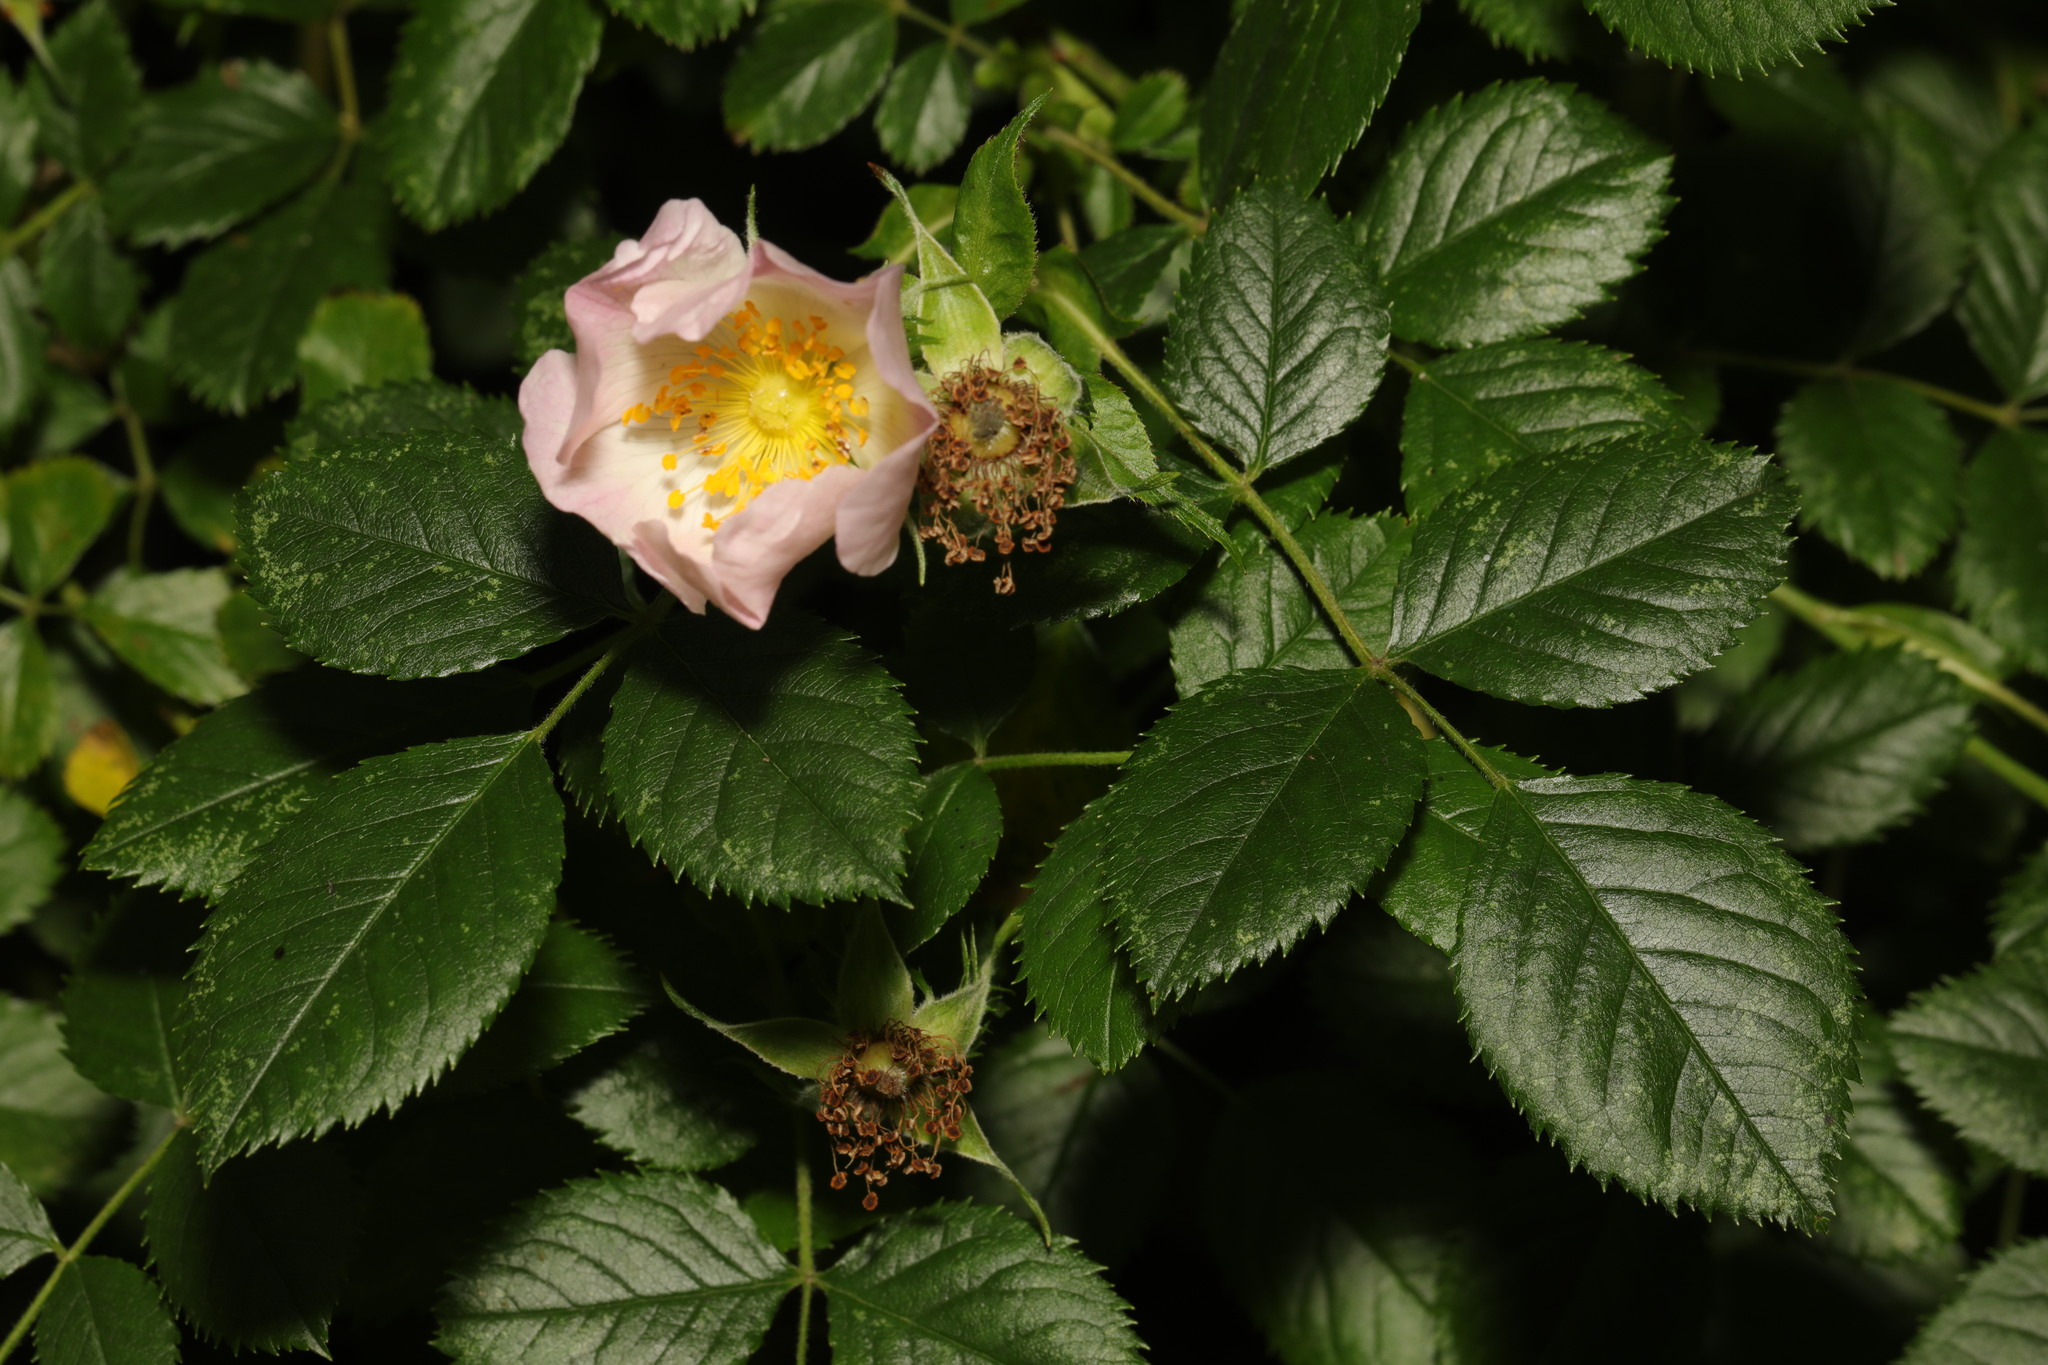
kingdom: Plantae
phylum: Tracheophyta
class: Magnoliopsida
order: Rosales
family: Rosaceae
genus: Rosa
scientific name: Rosa canina
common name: Dog rose
